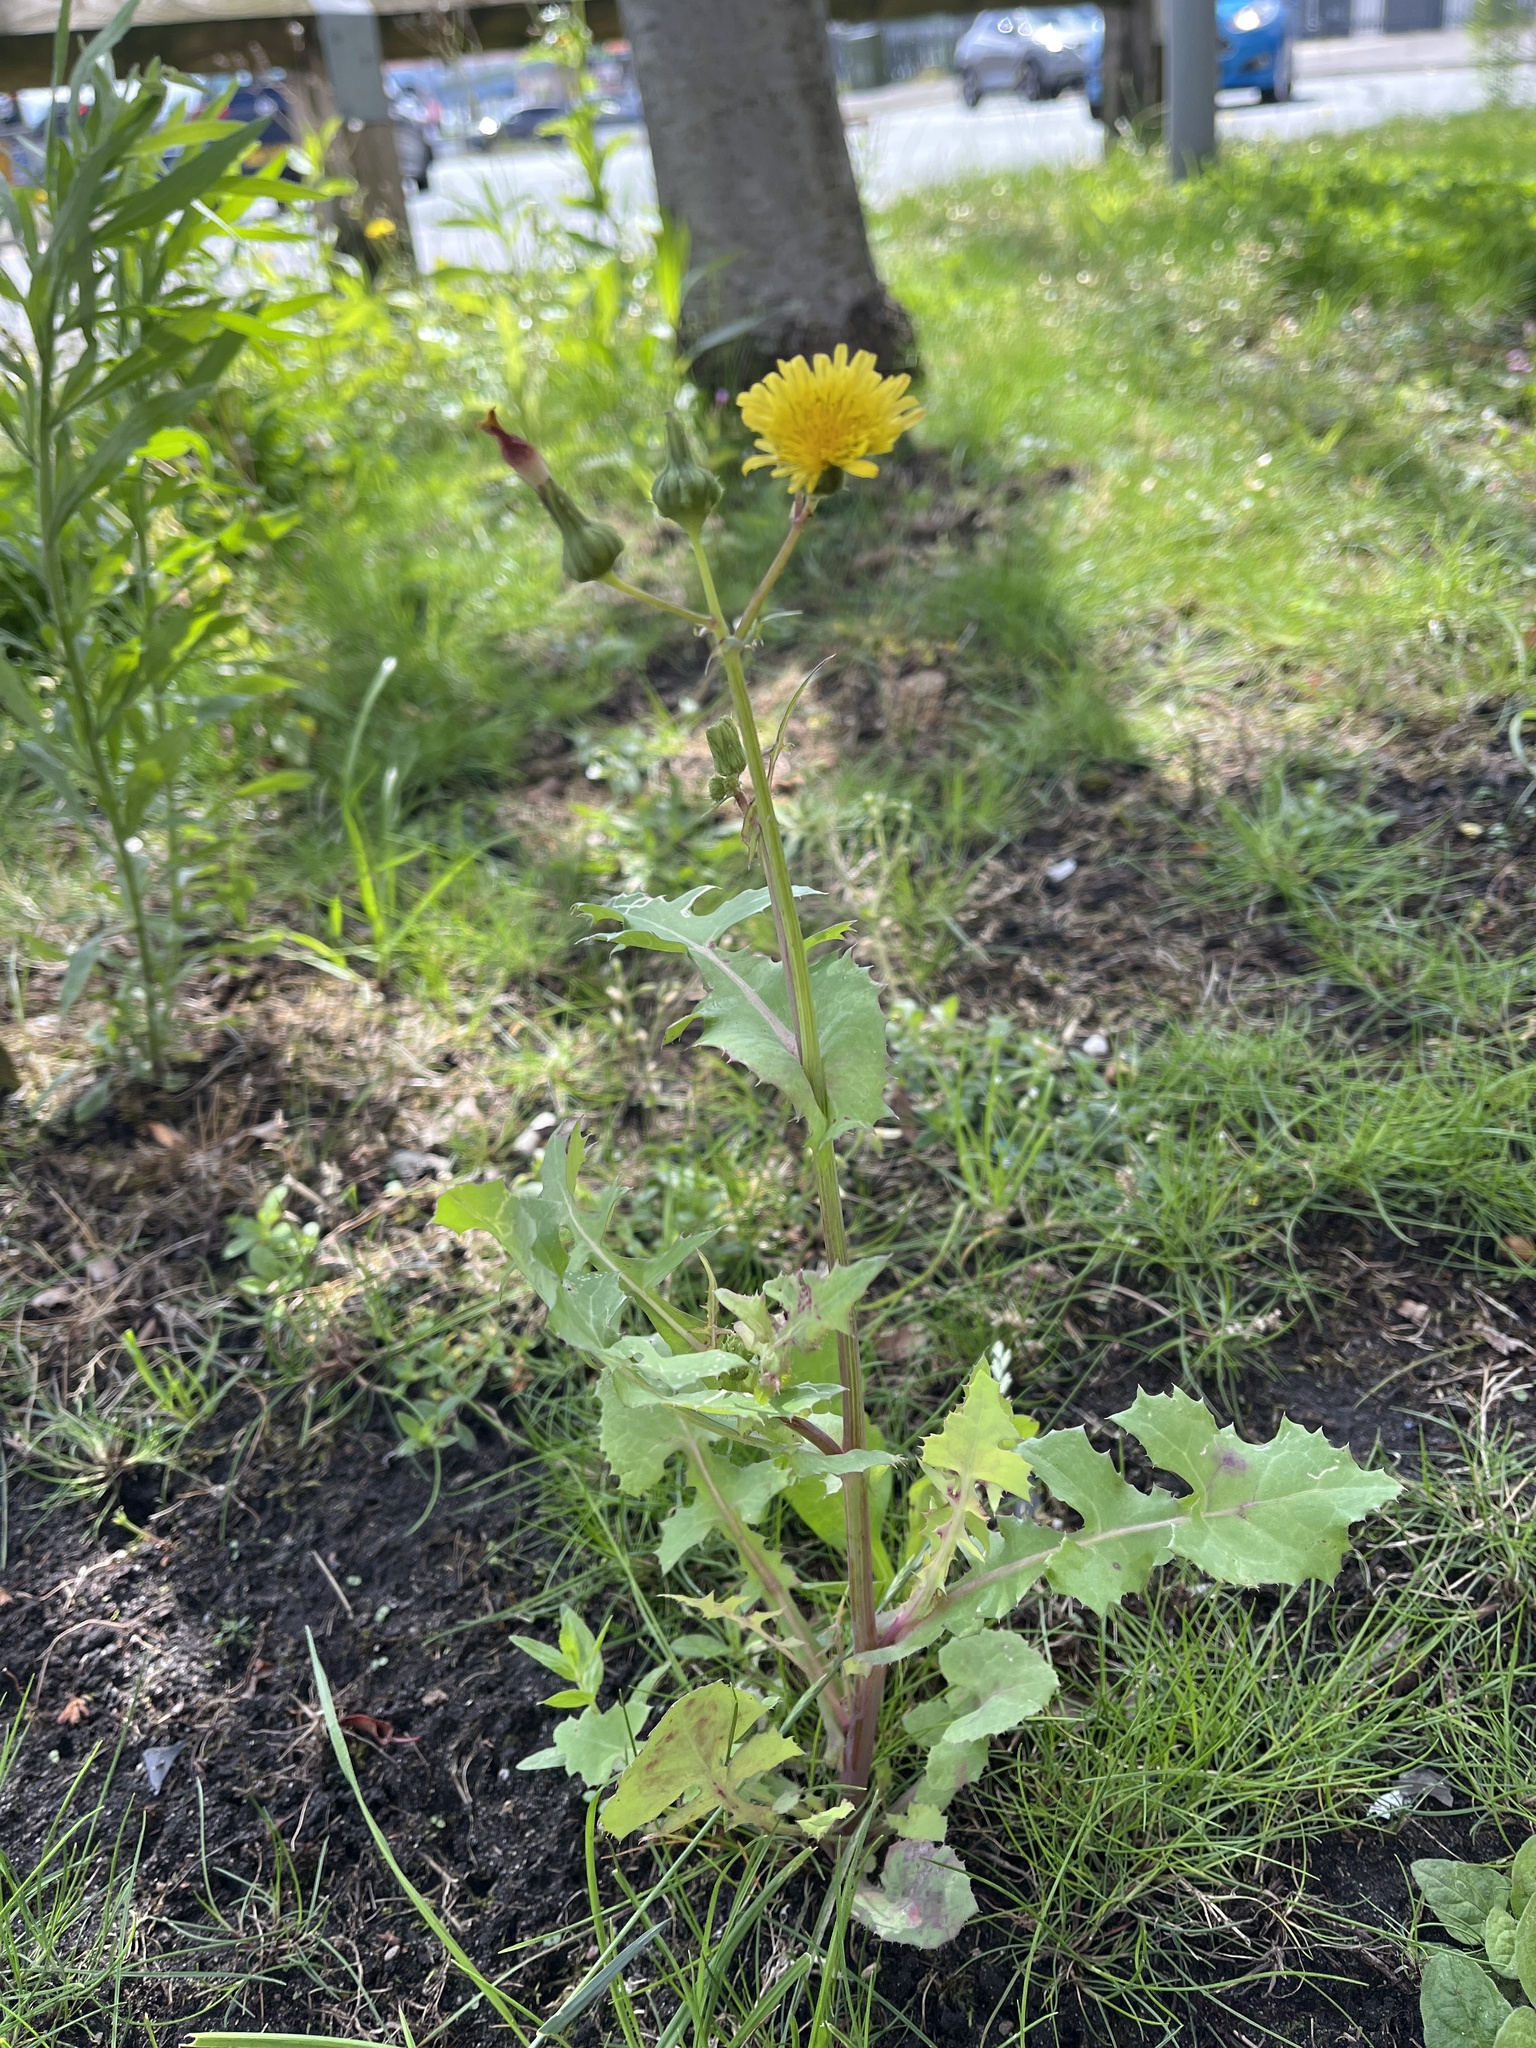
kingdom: Plantae
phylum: Tracheophyta
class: Magnoliopsida
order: Asterales
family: Asteraceae
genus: Sonchus
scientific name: Sonchus oleraceus
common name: Common sowthistle
